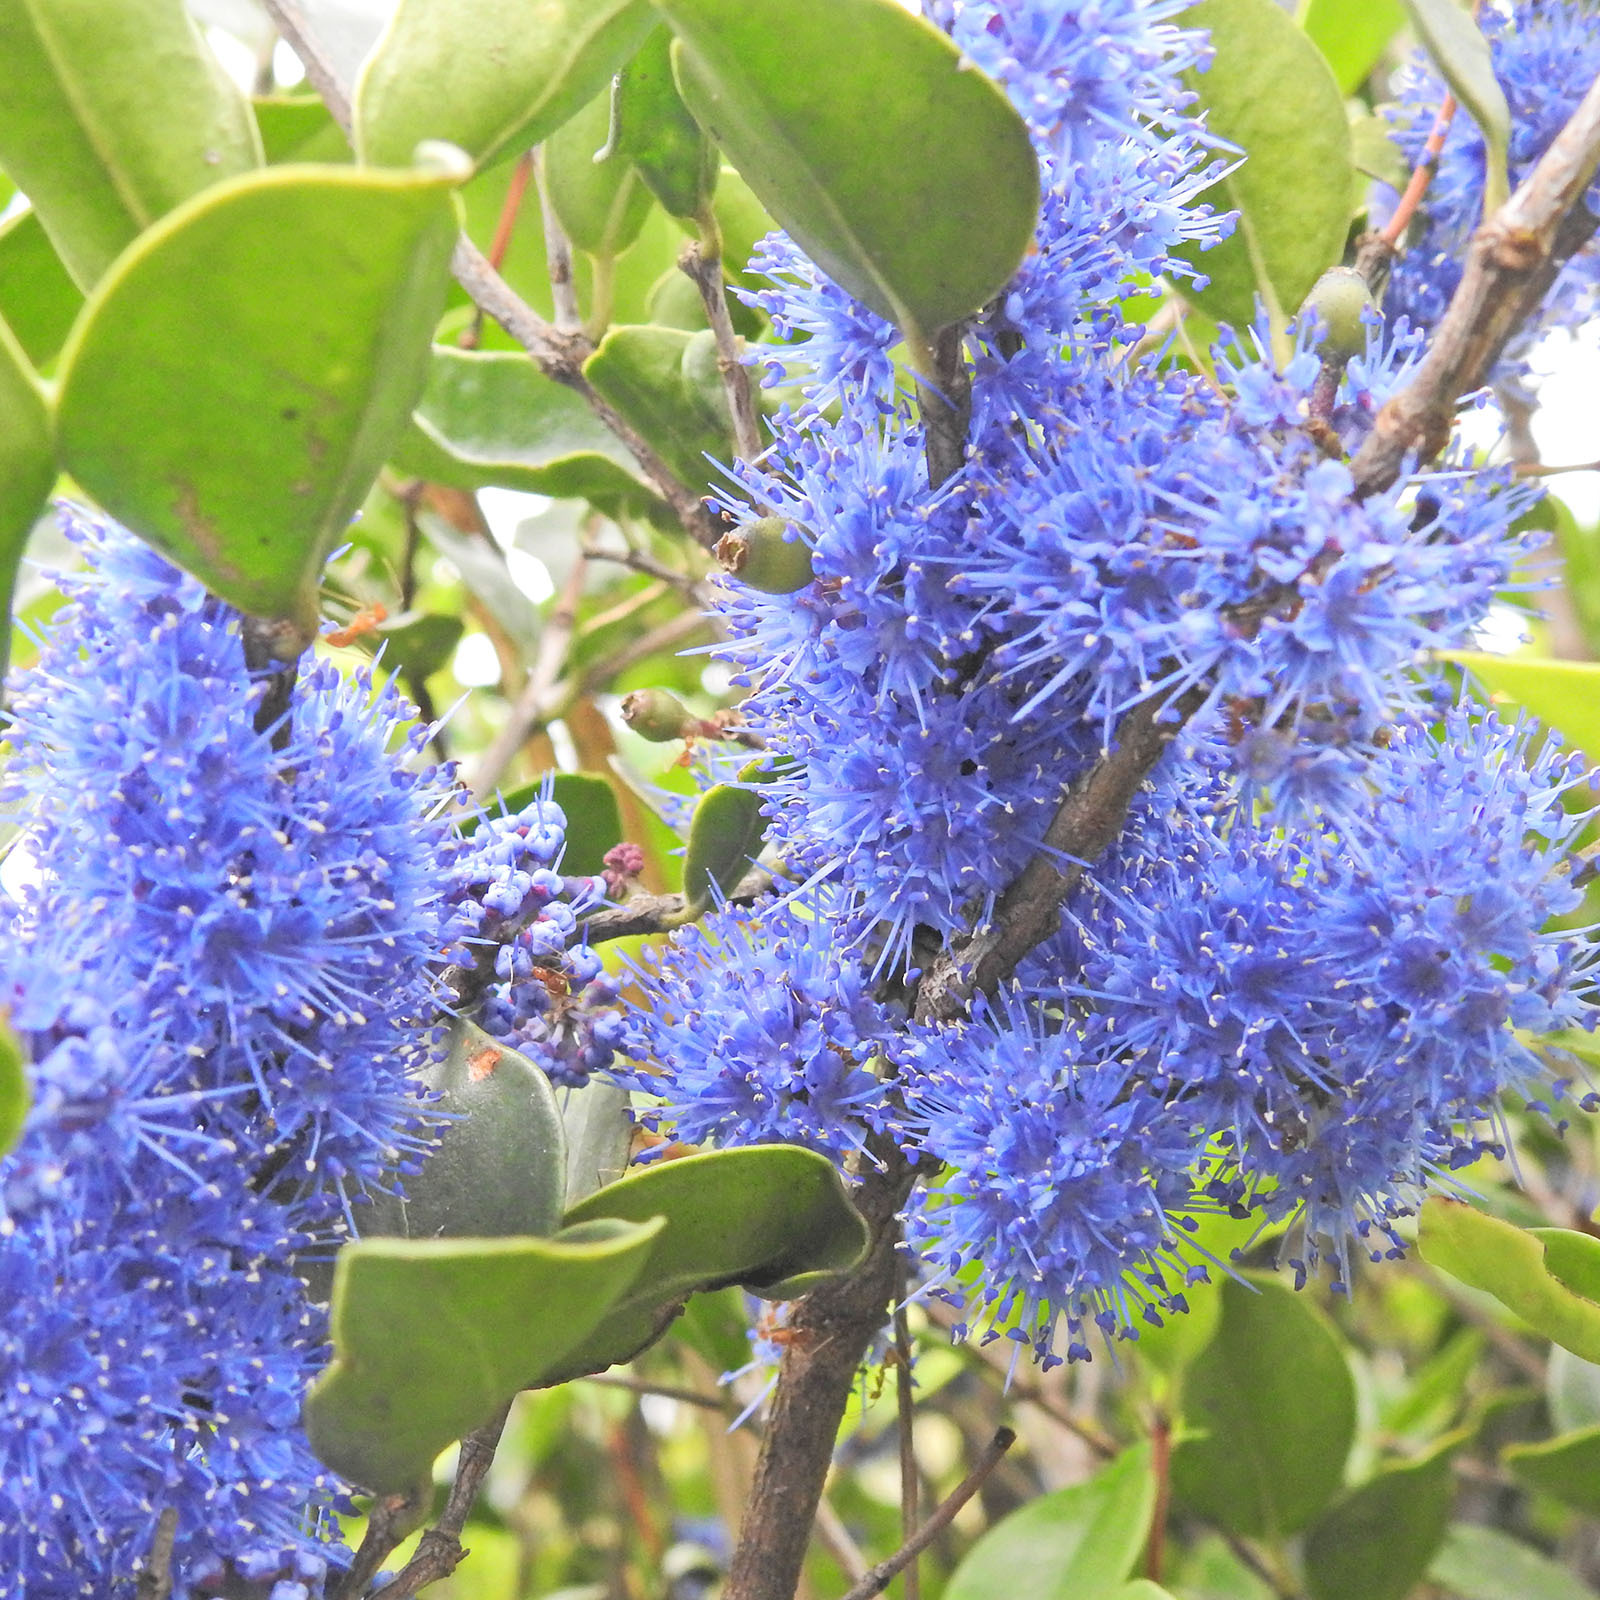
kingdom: Plantae
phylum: Tracheophyta
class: Magnoliopsida
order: Myrtales
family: Melastomataceae
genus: Memecylon
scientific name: Memecylon umbellatum
